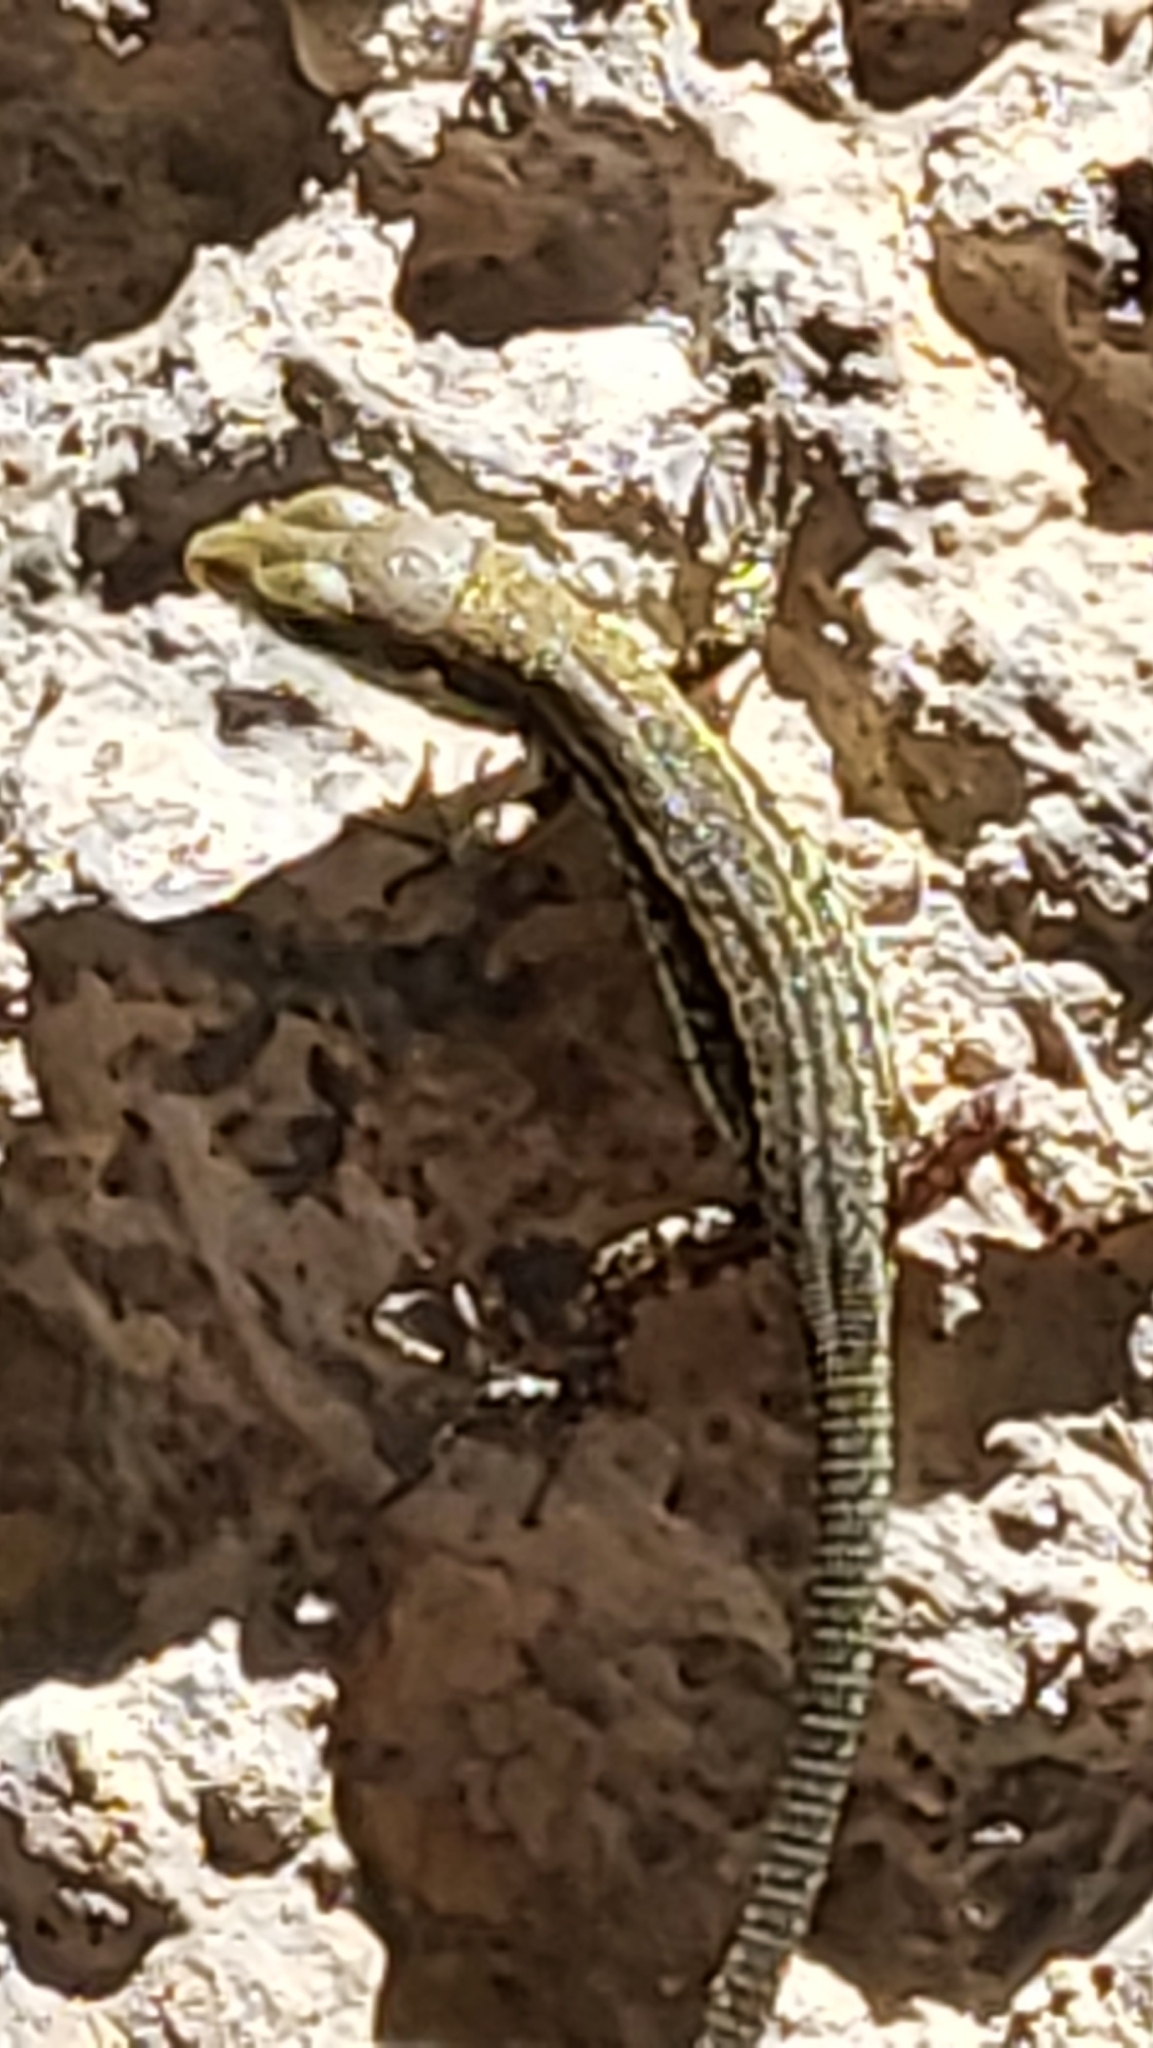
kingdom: Animalia
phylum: Chordata
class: Squamata
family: Lacertidae
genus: Podarcis
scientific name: Podarcis muralis
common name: Common wall lizard
